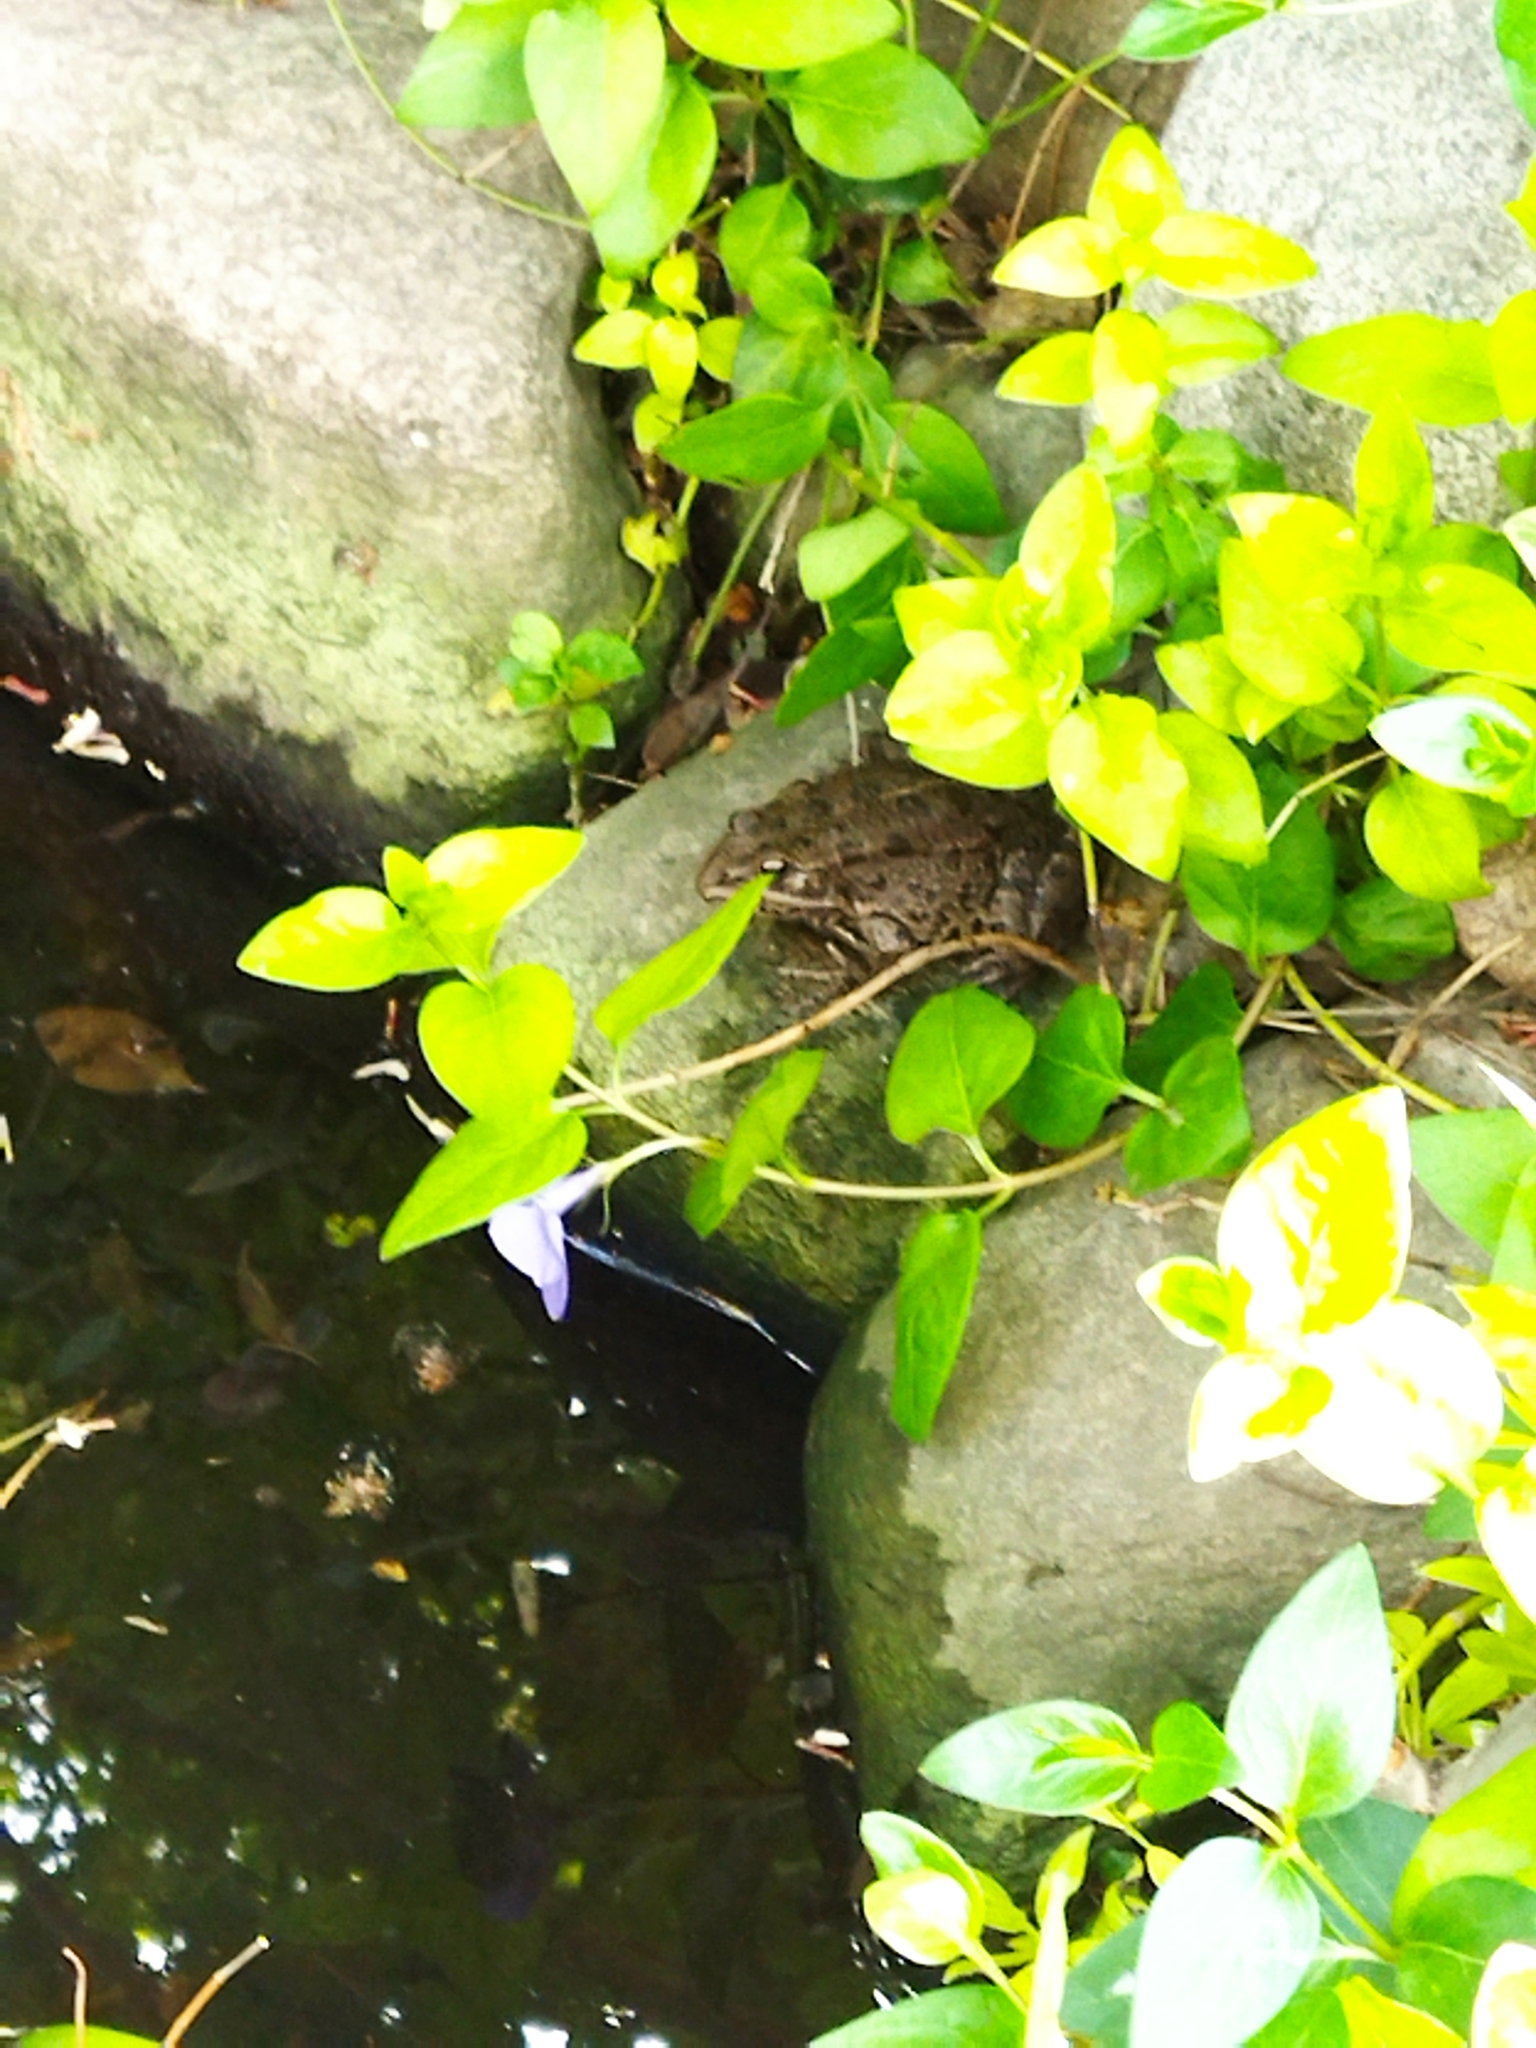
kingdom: Animalia
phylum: Chordata
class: Amphibia
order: Anura
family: Ranidae
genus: Pelophylax
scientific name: Pelophylax ridibundus
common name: Marsh frog
